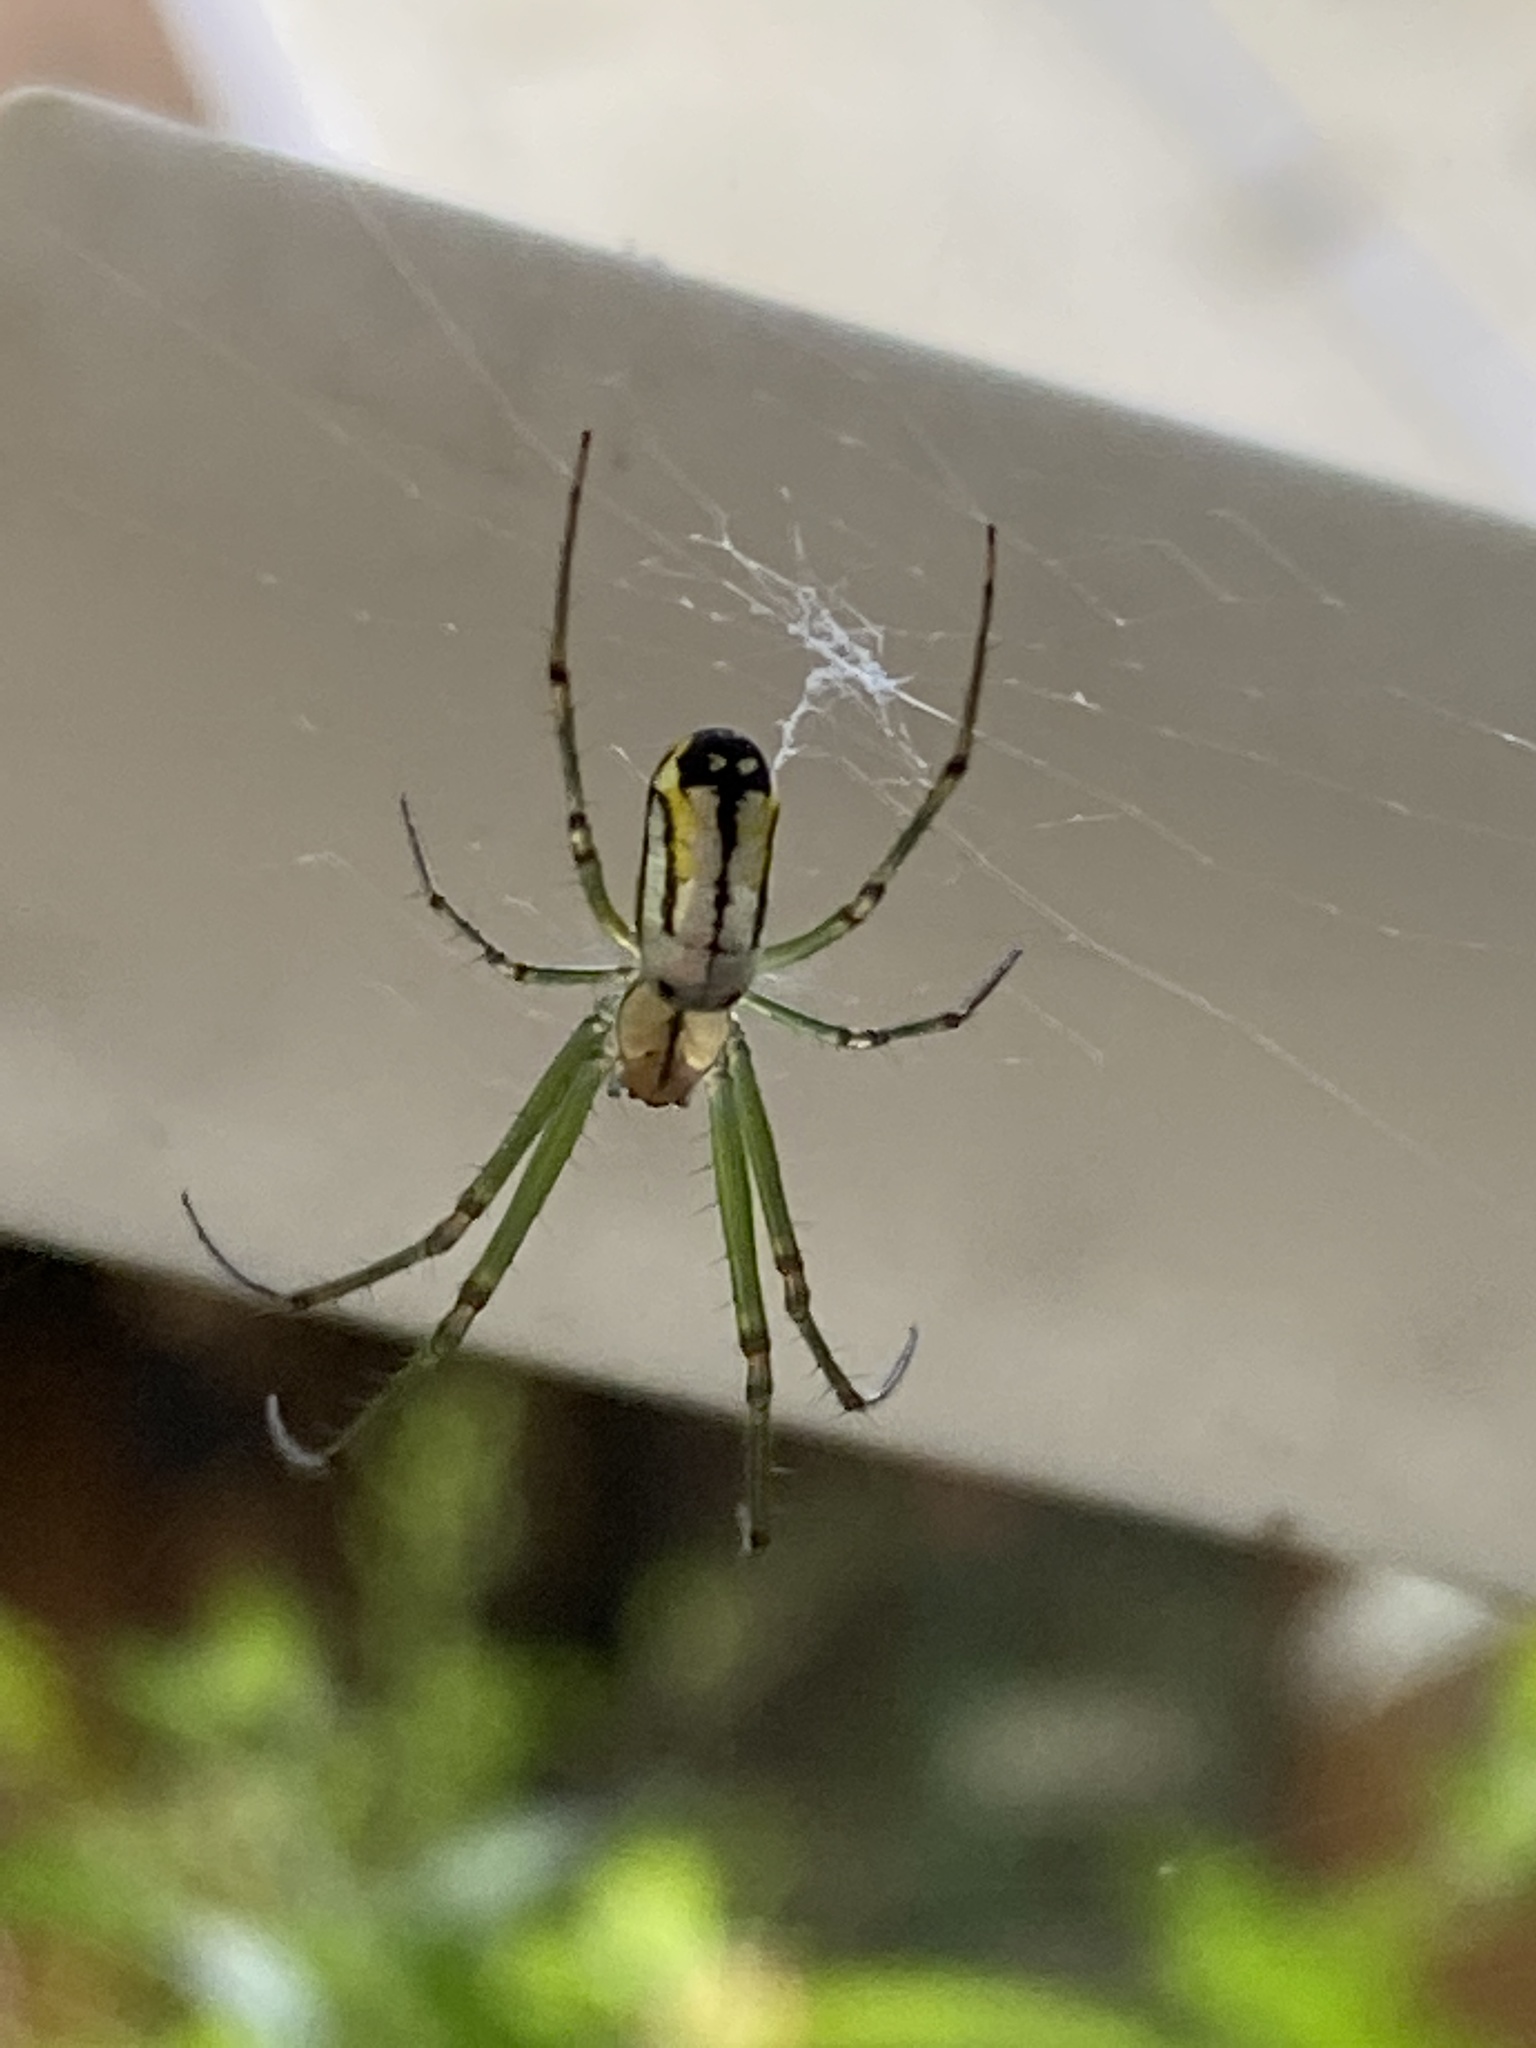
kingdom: Animalia
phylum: Arthropoda
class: Arachnida
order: Araneae
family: Tetragnathidae
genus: Leucauge
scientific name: Leucauge venusta
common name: Longjawed orb weavers
